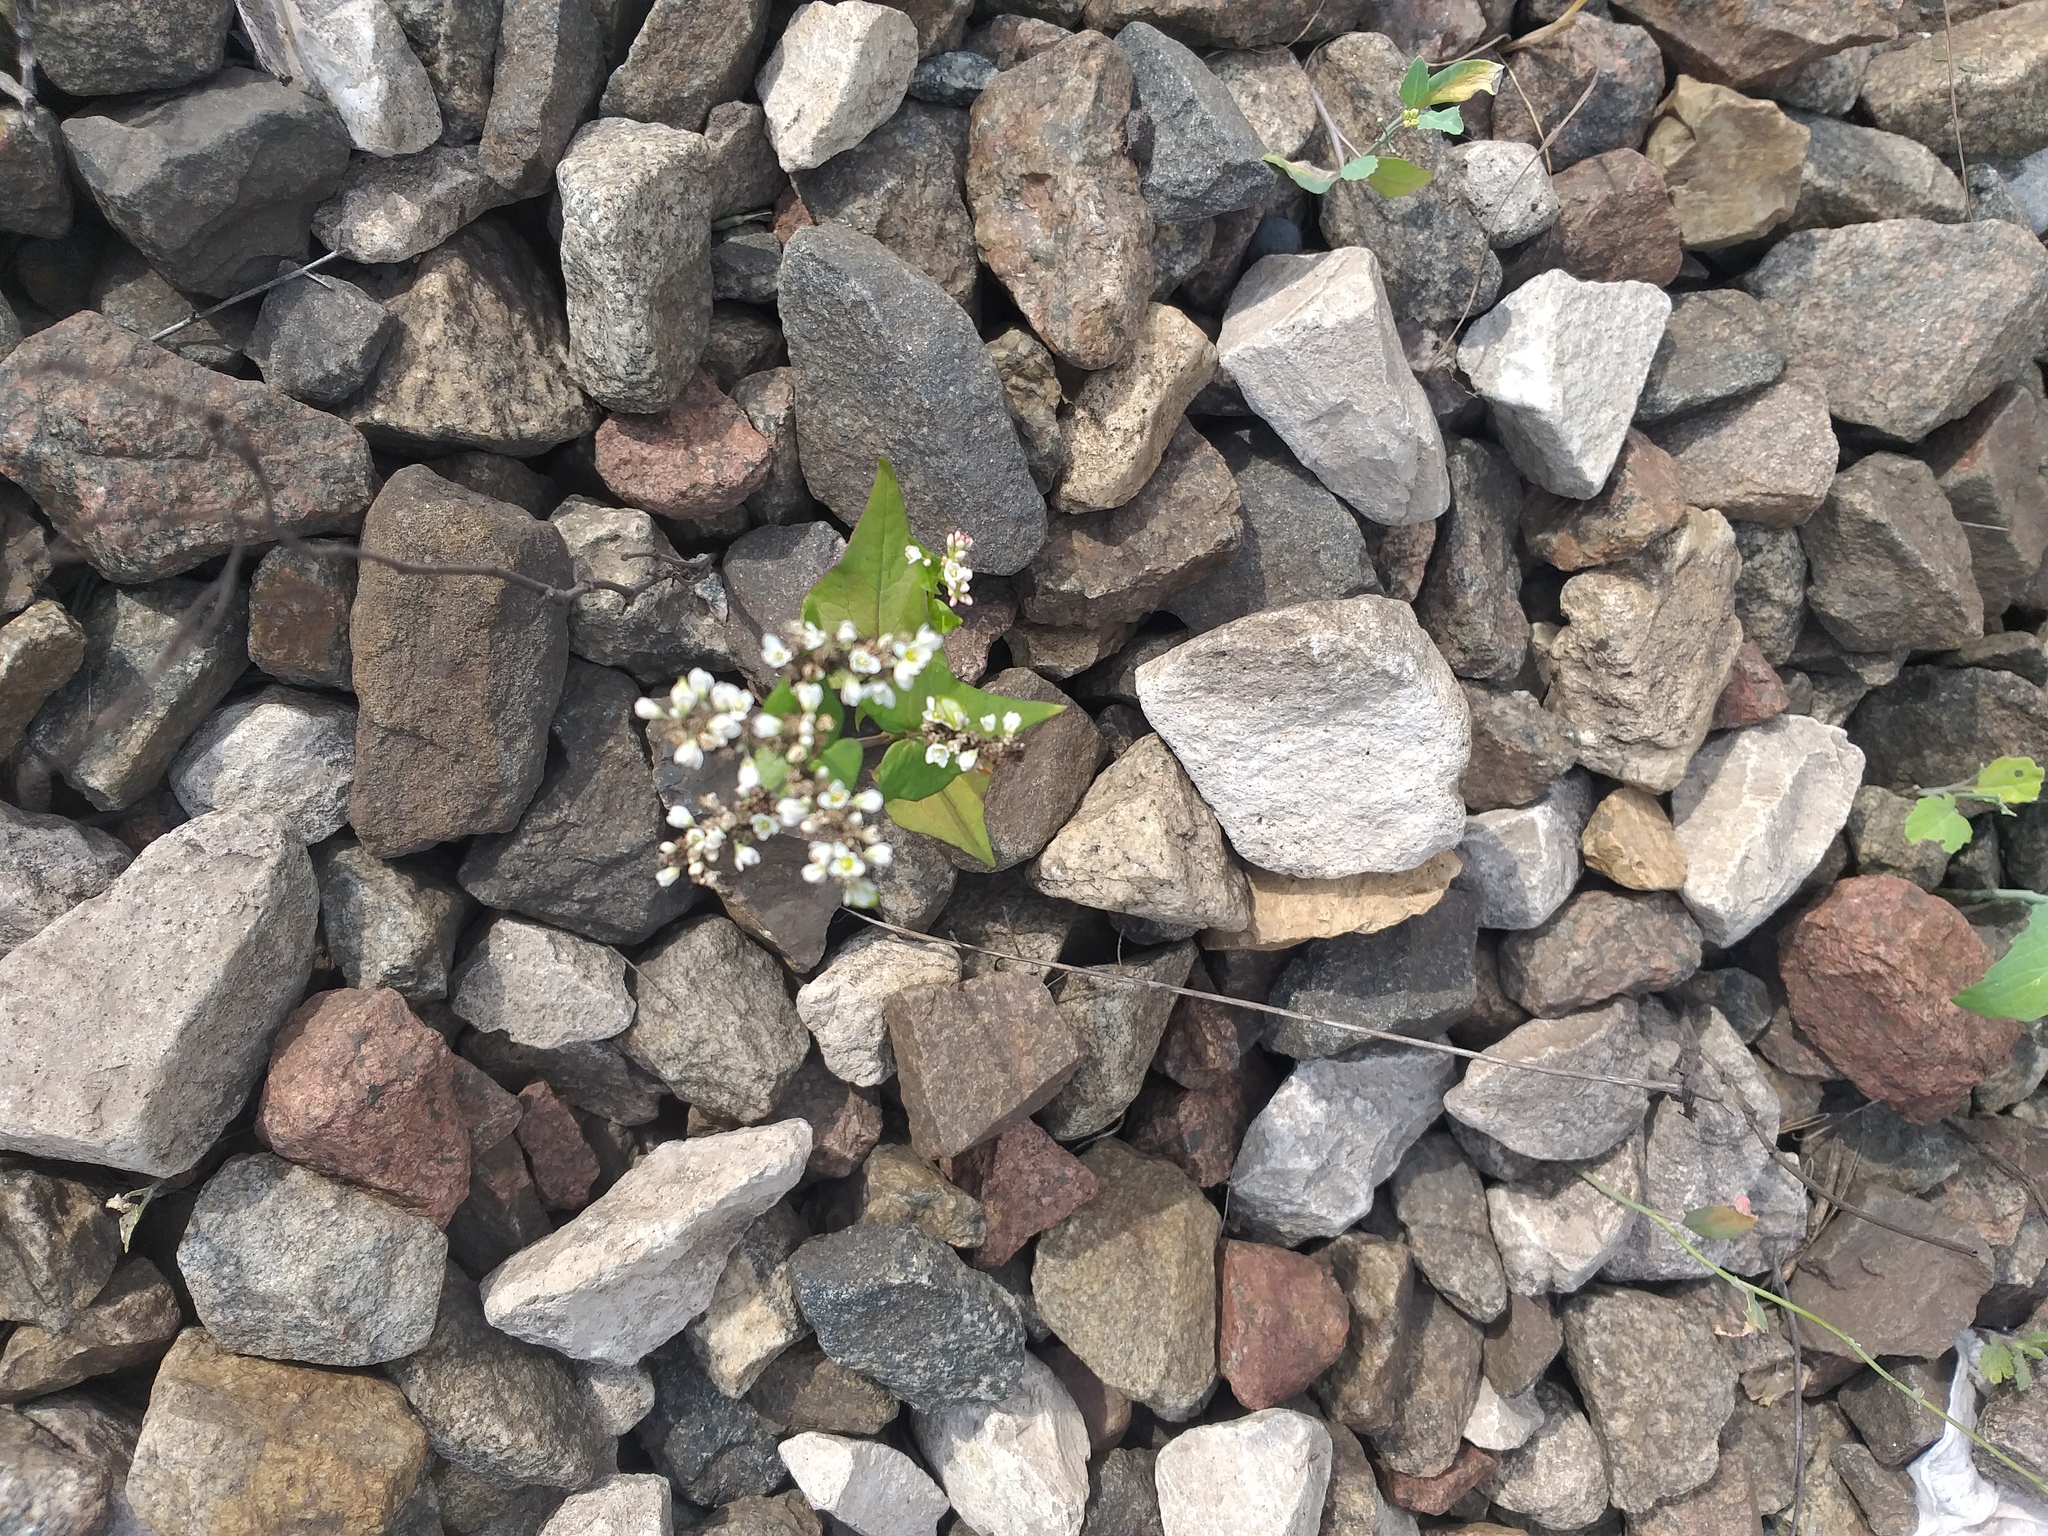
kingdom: Plantae
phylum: Tracheophyta
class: Magnoliopsida
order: Caryophyllales
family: Polygonaceae
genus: Fagopyrum
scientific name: Fagopyrum esculentum
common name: Buckwheat
